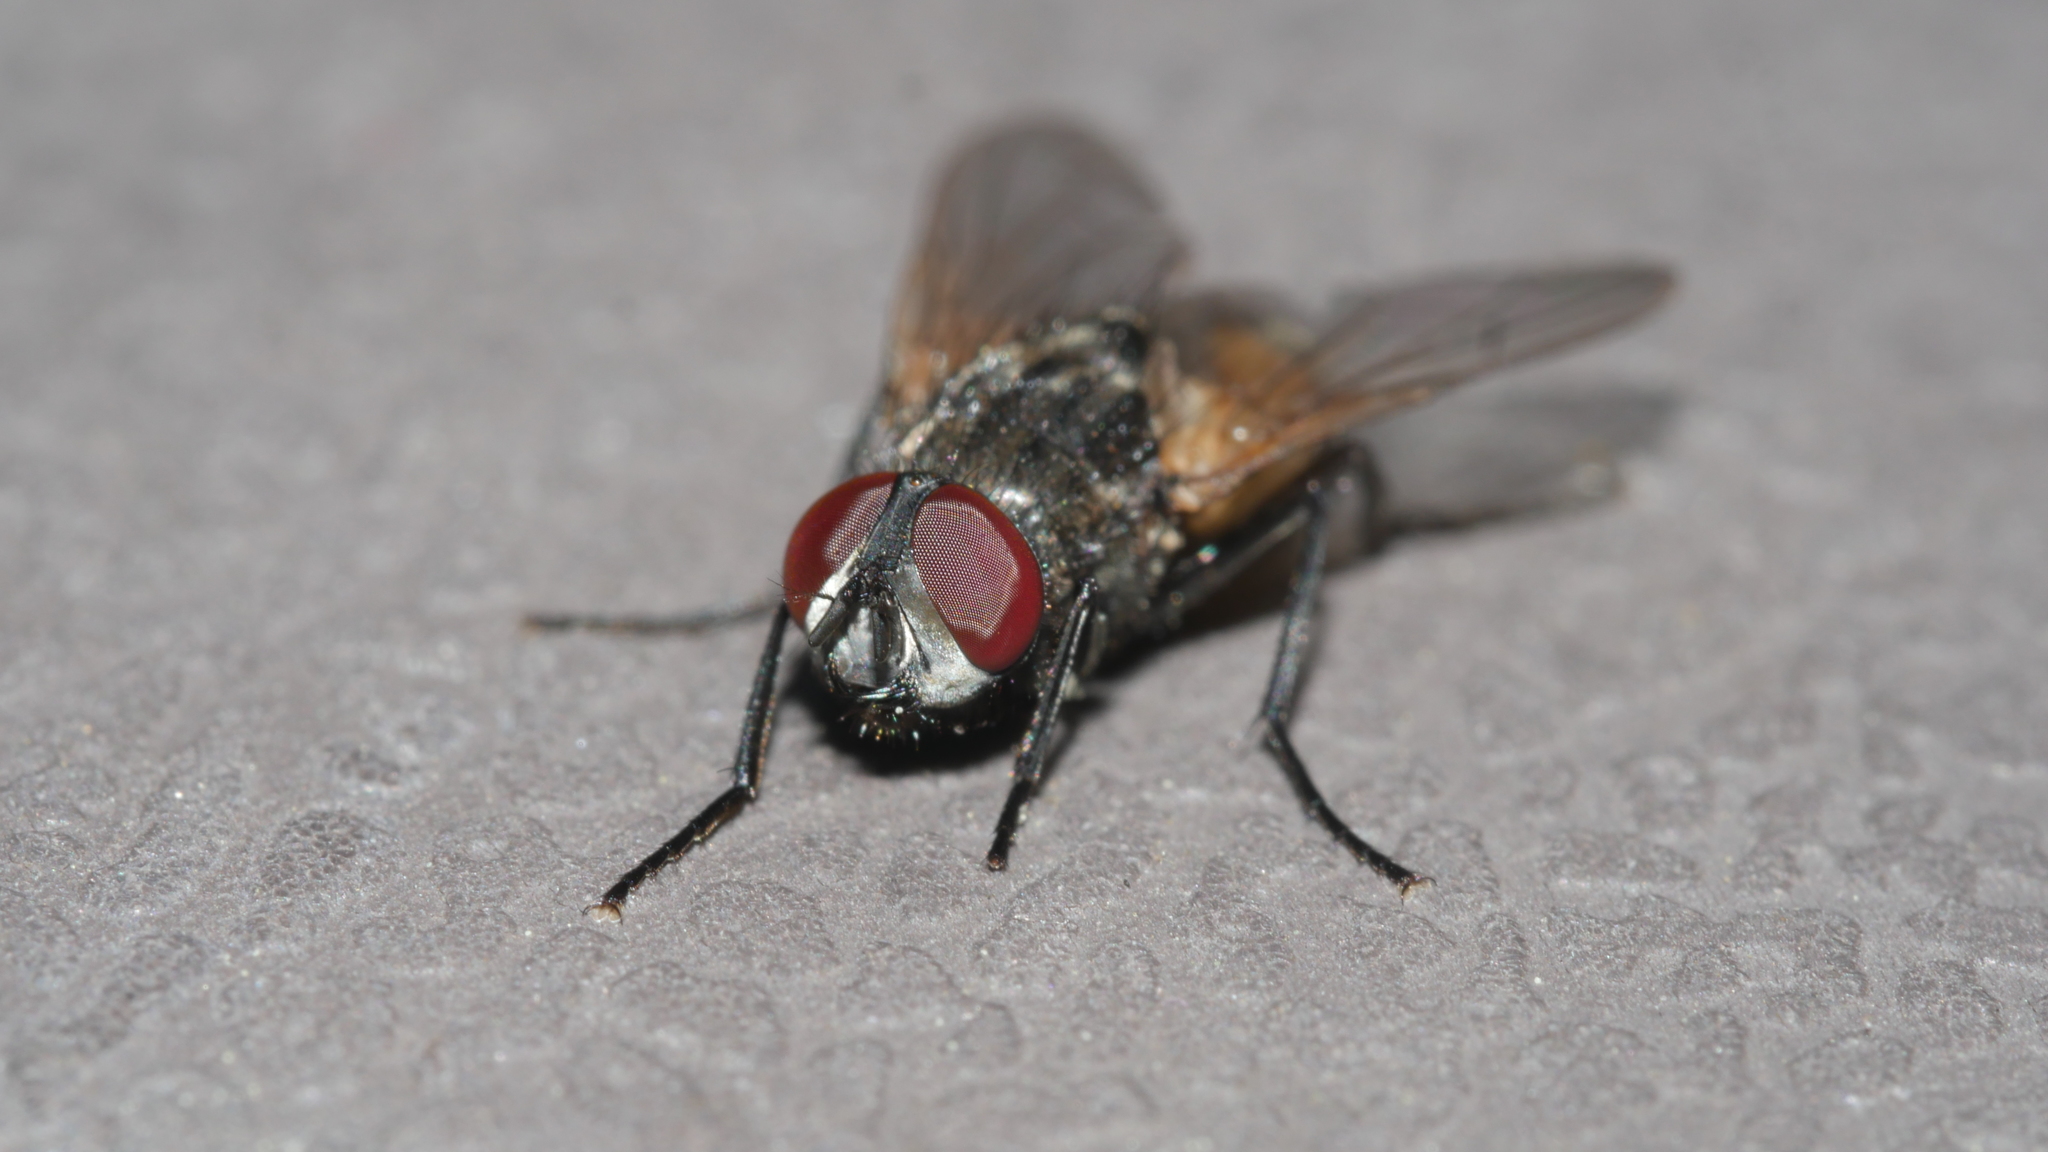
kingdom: Animalia
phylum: Arthropoda
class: Insecta
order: Diptera
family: Muscidae
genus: Musca
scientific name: Musca domestica
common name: House fly
